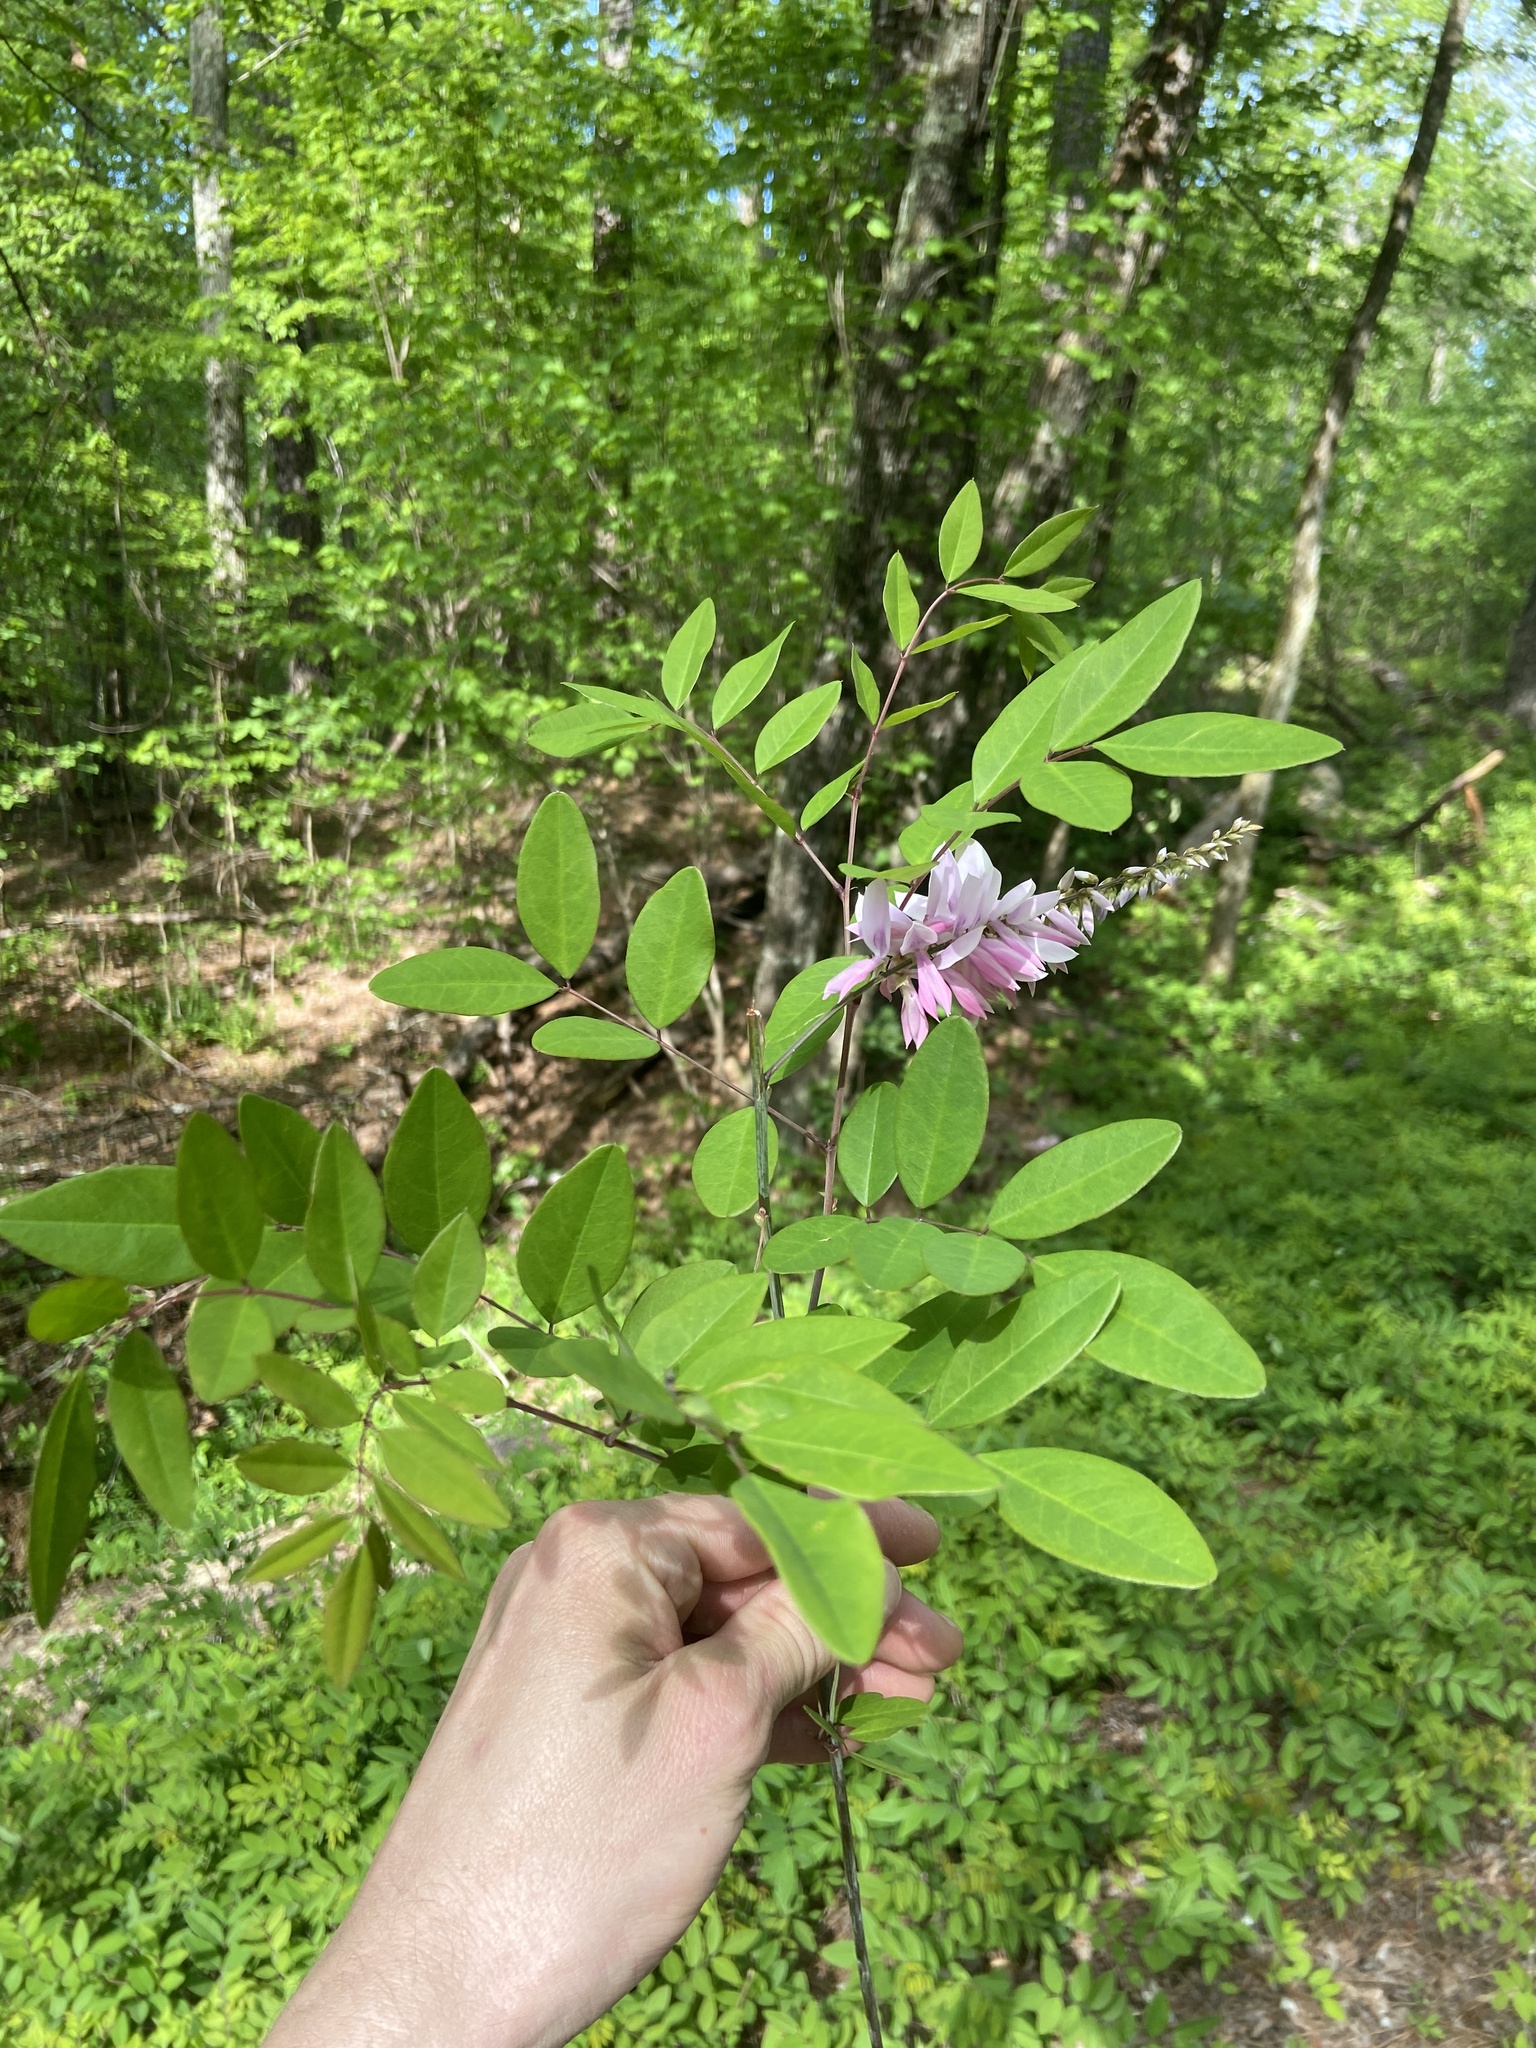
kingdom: Plantae
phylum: Tracheophyta
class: Magnoliopsida
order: Fabales
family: Fabaceae
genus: Indigofera
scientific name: Indigofera incarnata
